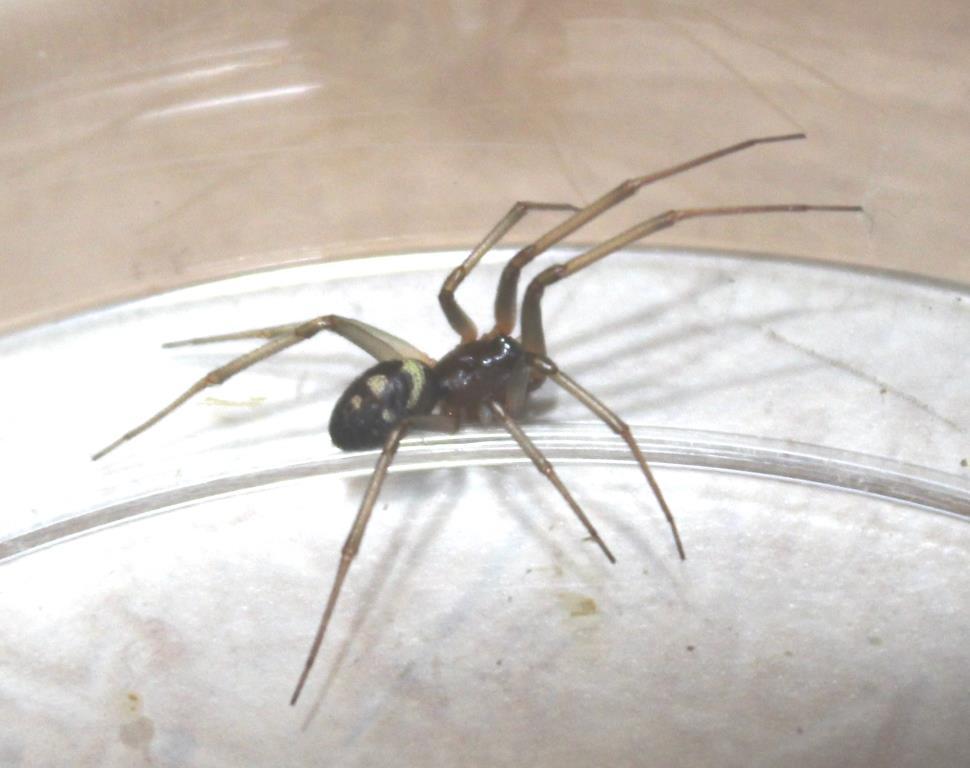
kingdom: Animalia
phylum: Arthropoda
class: Arachnida
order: Araneae
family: Theridiidae
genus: Steatoda
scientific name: Steatoda grossa
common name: False black widow
